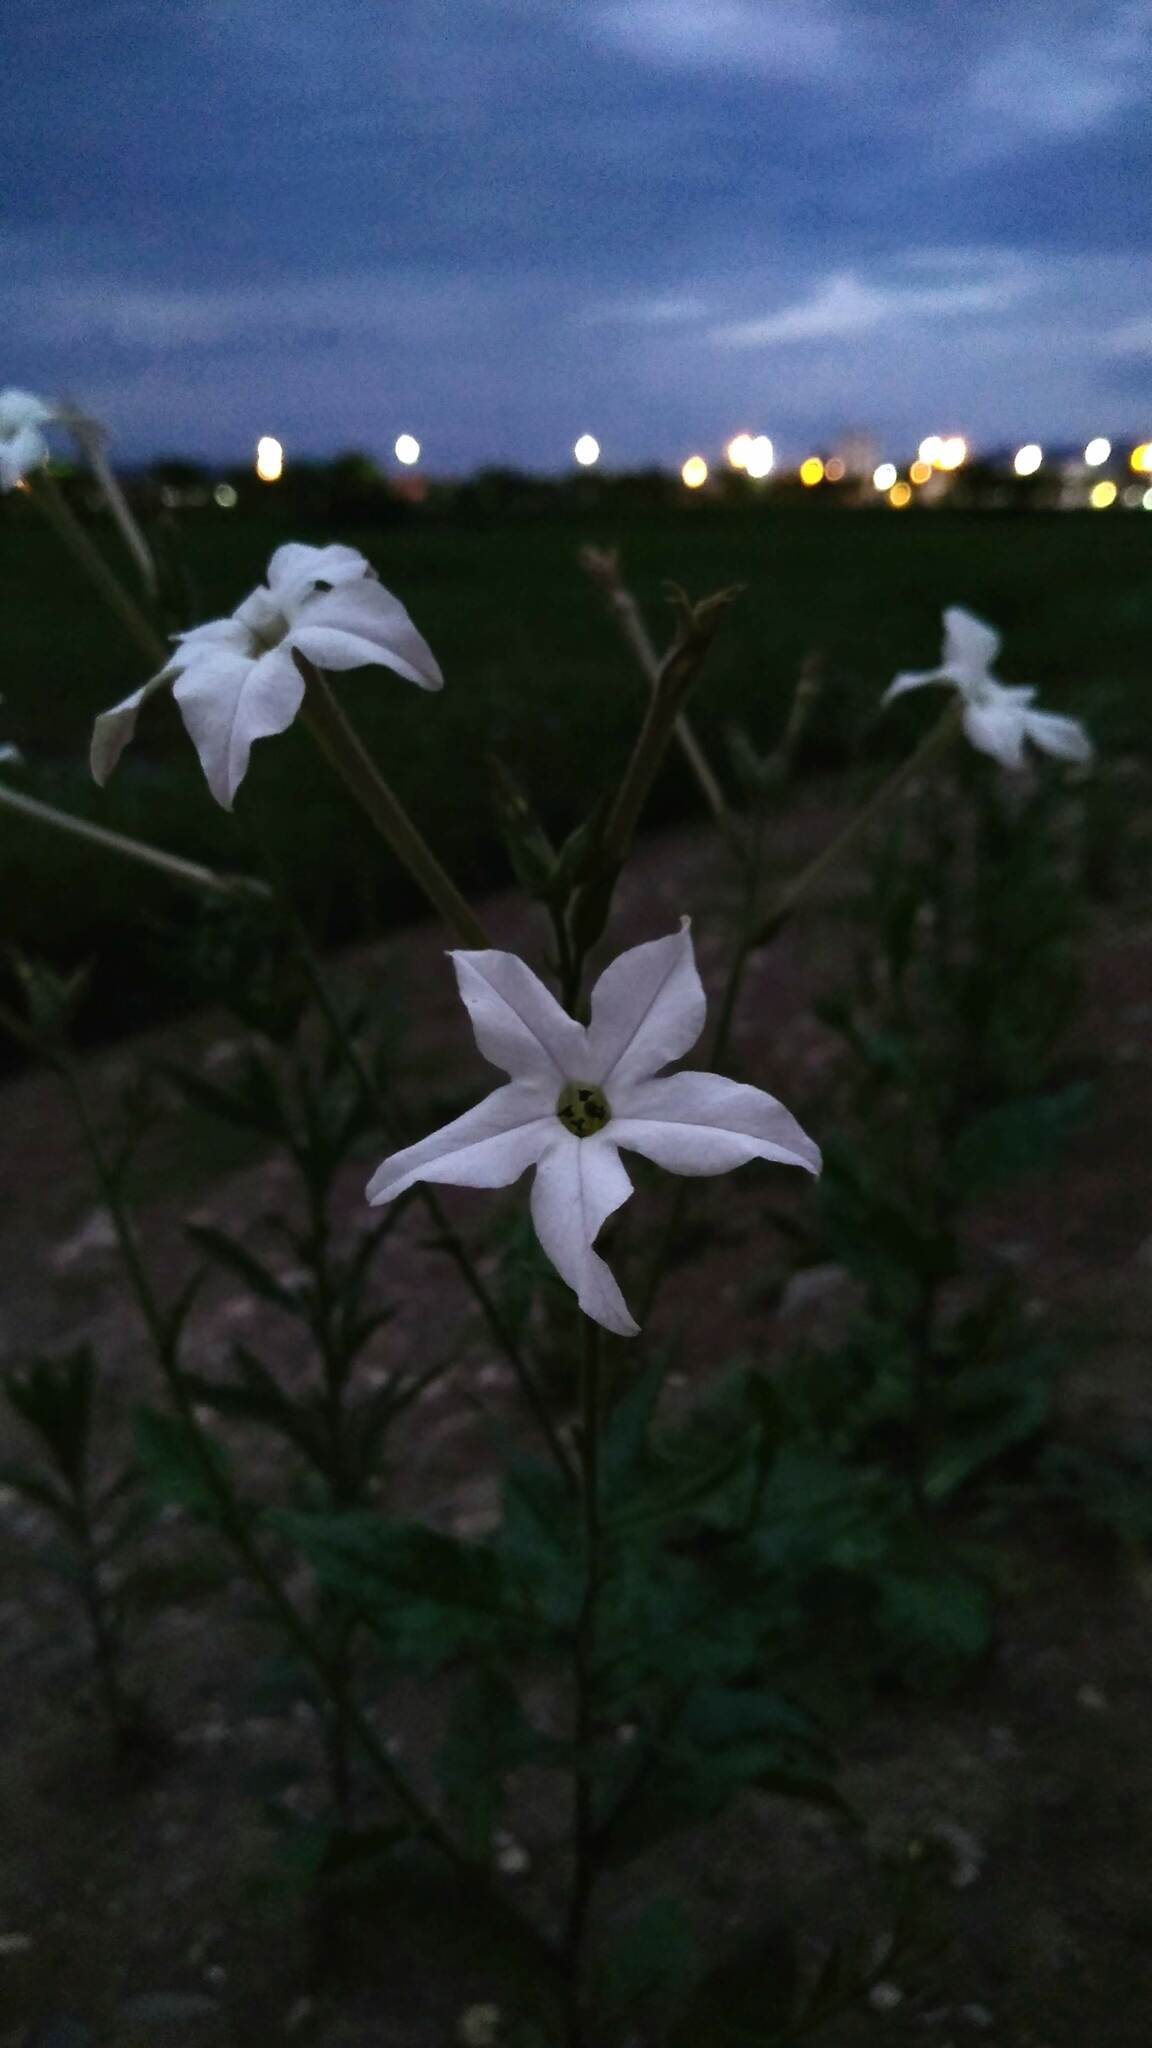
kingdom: Plantae
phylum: Tracheophyta
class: Magnoliopsida
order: Solanales
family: Solanaceae
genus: Nicotiana
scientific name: Nicotiana longiflora
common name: Long-flowered tobacco
